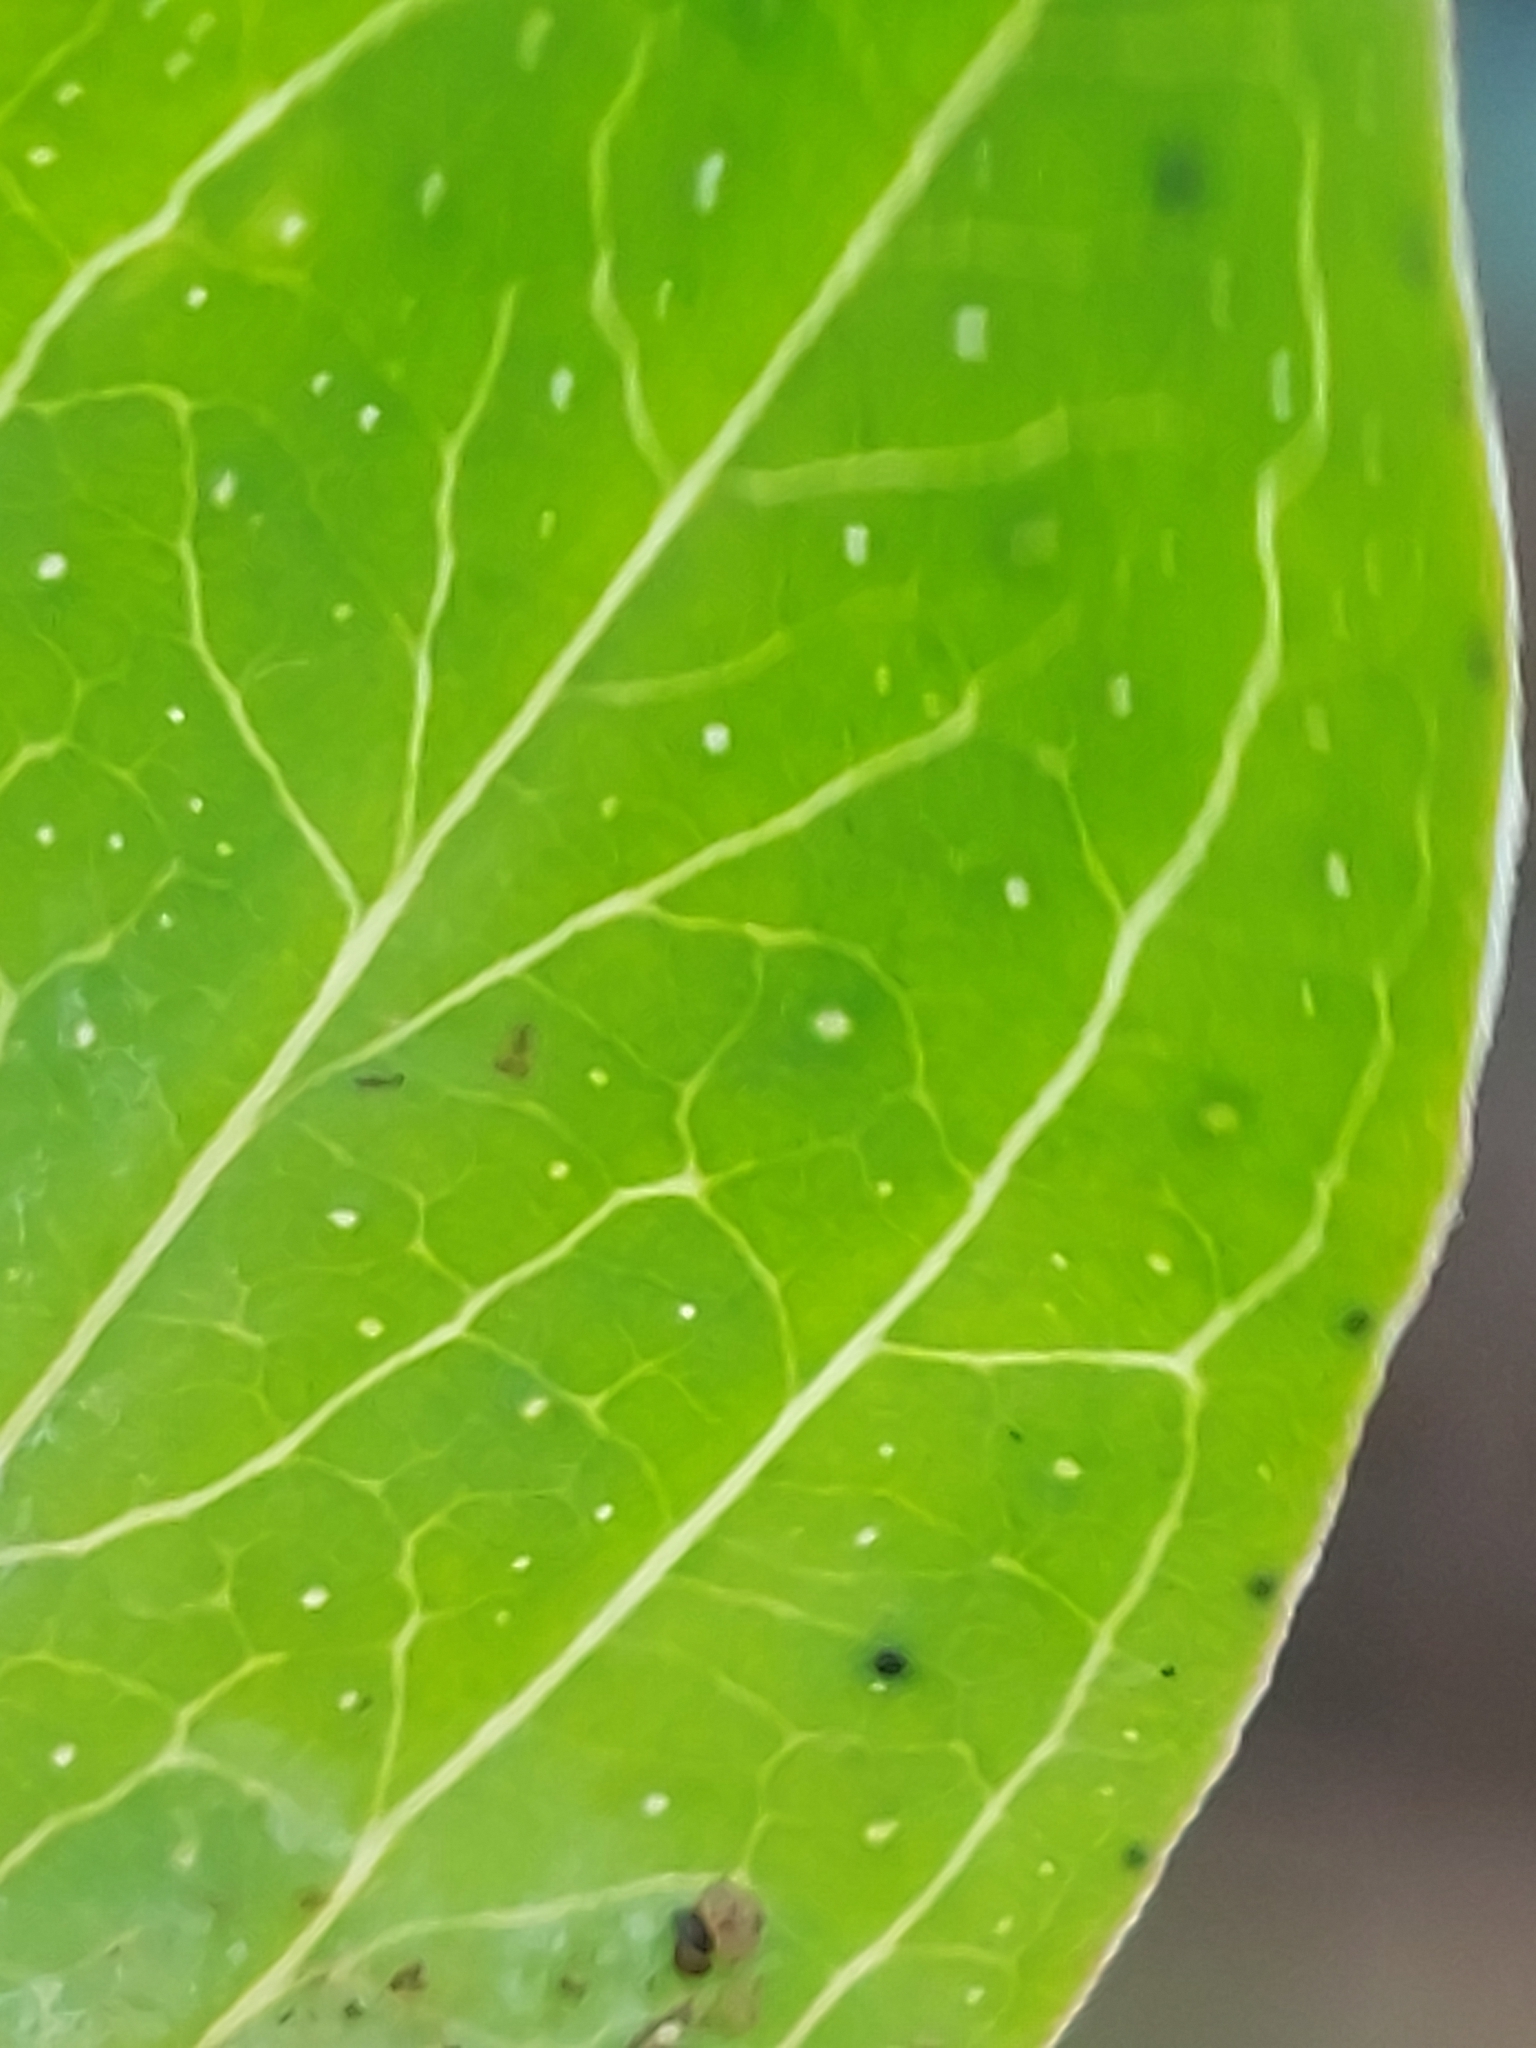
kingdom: Plantae
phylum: Tracheophyta
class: Magnoliopsida
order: Malpighiales
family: Hypericaceae
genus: Hypericum
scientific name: Hypericum perforatum
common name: Common st. johnswort
